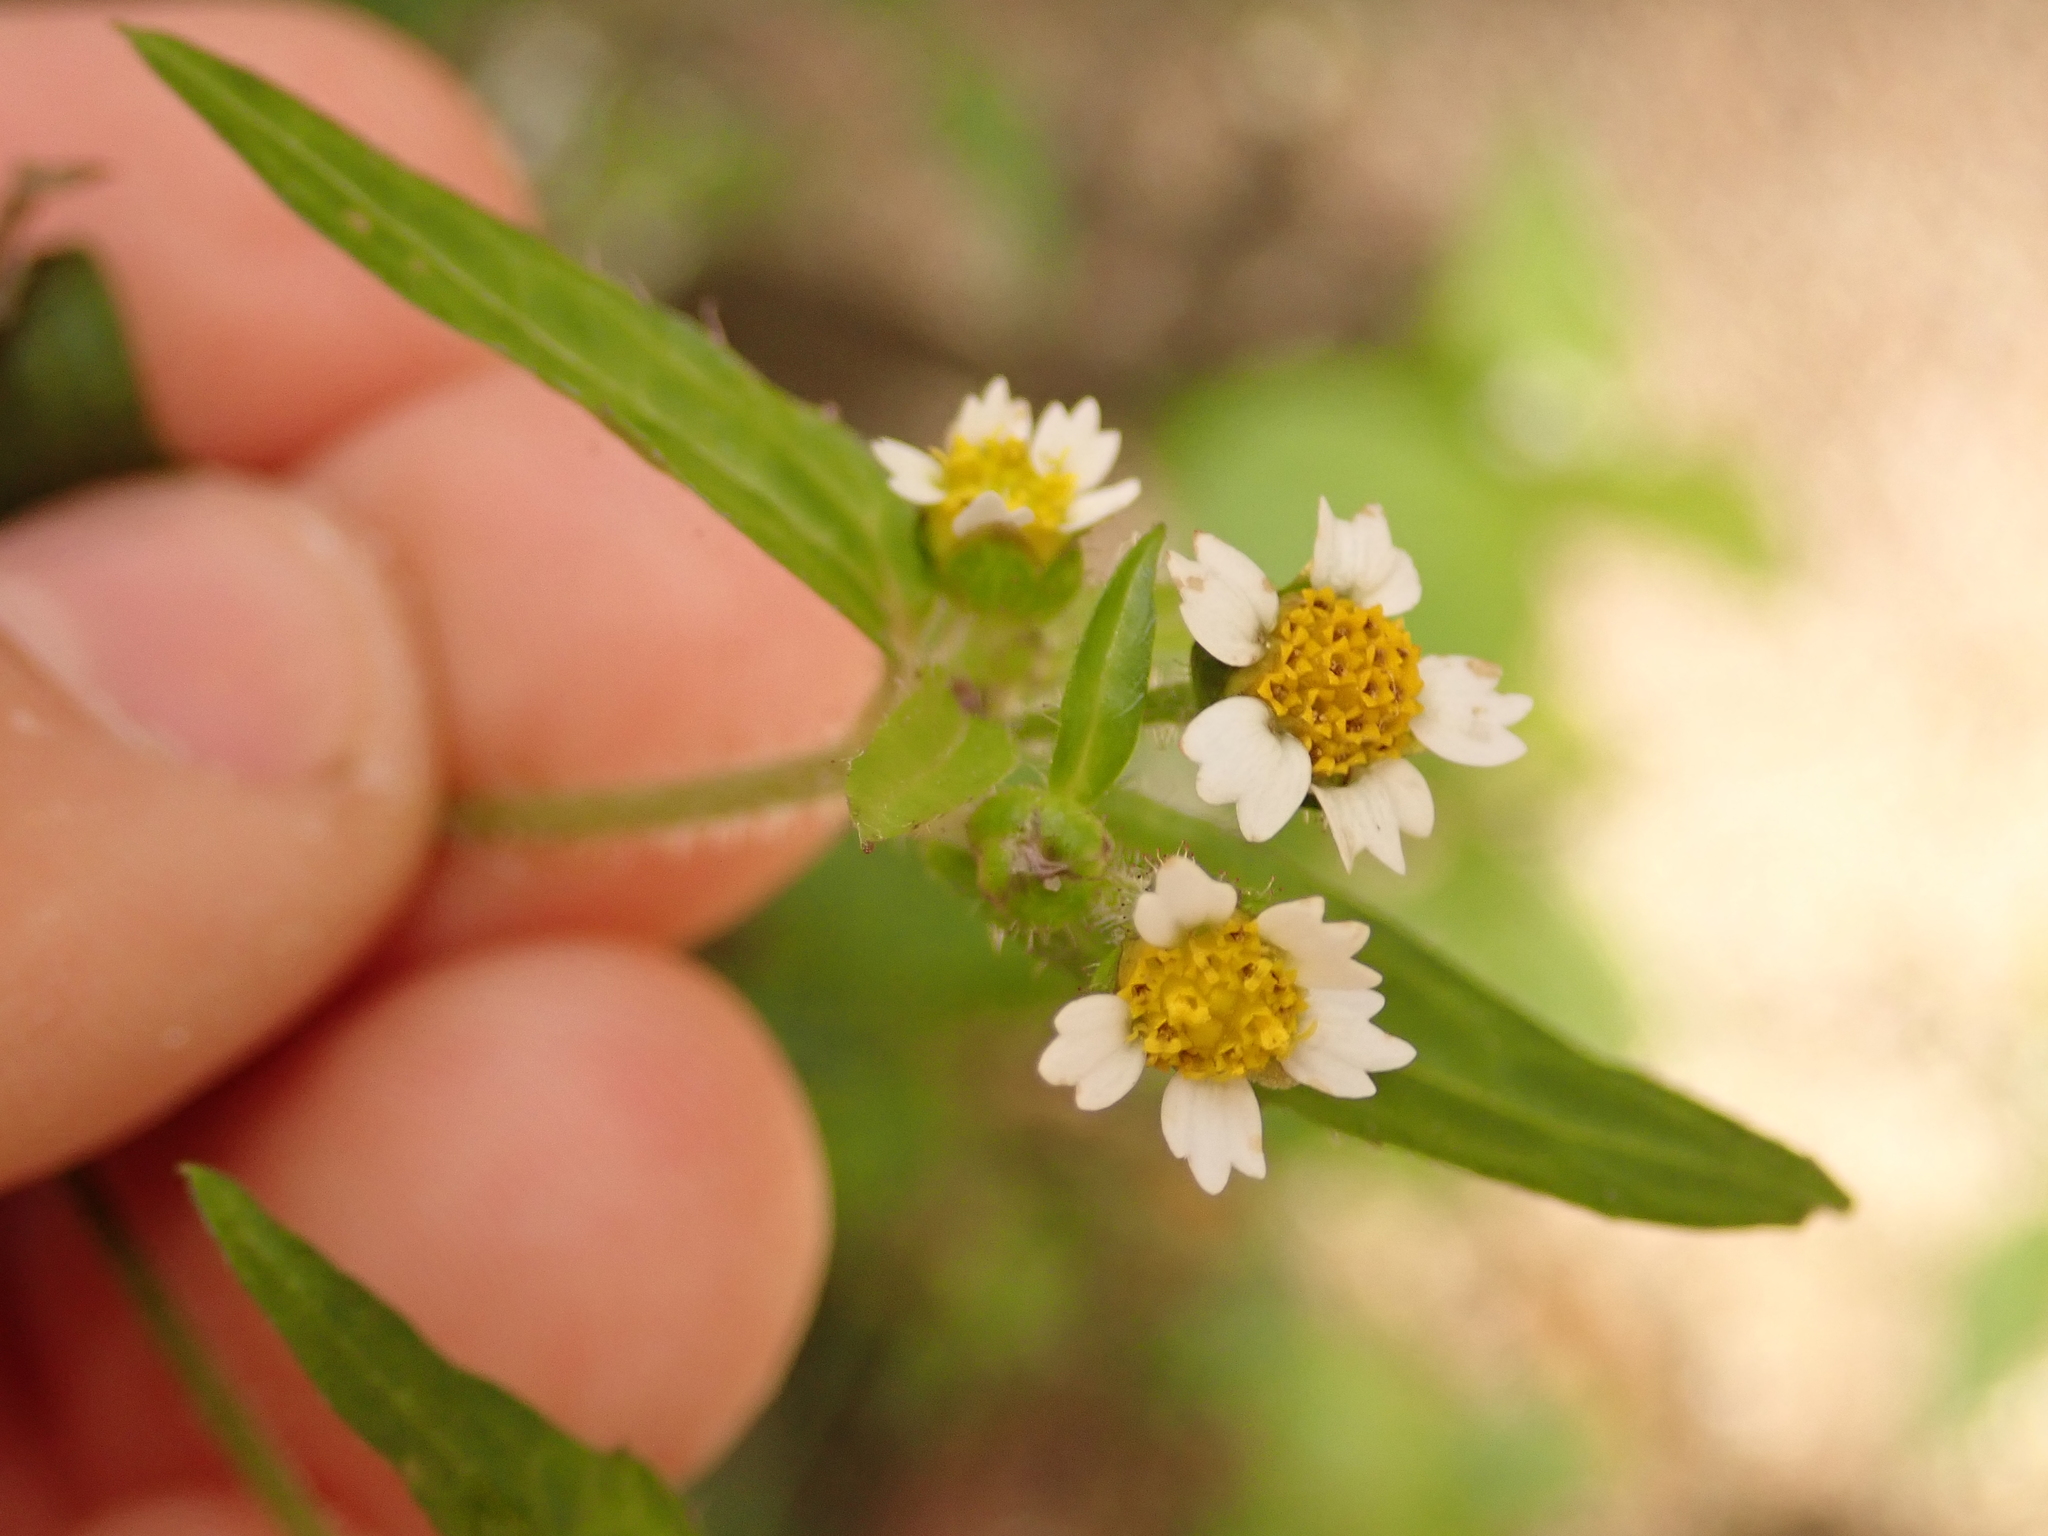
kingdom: Plantae
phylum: Tracheophyta
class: Magnoliopsida
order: Asterales
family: Asteraceae
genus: Galinsoga
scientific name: Galinsoga quadriradiata
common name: Shaggy soldier
